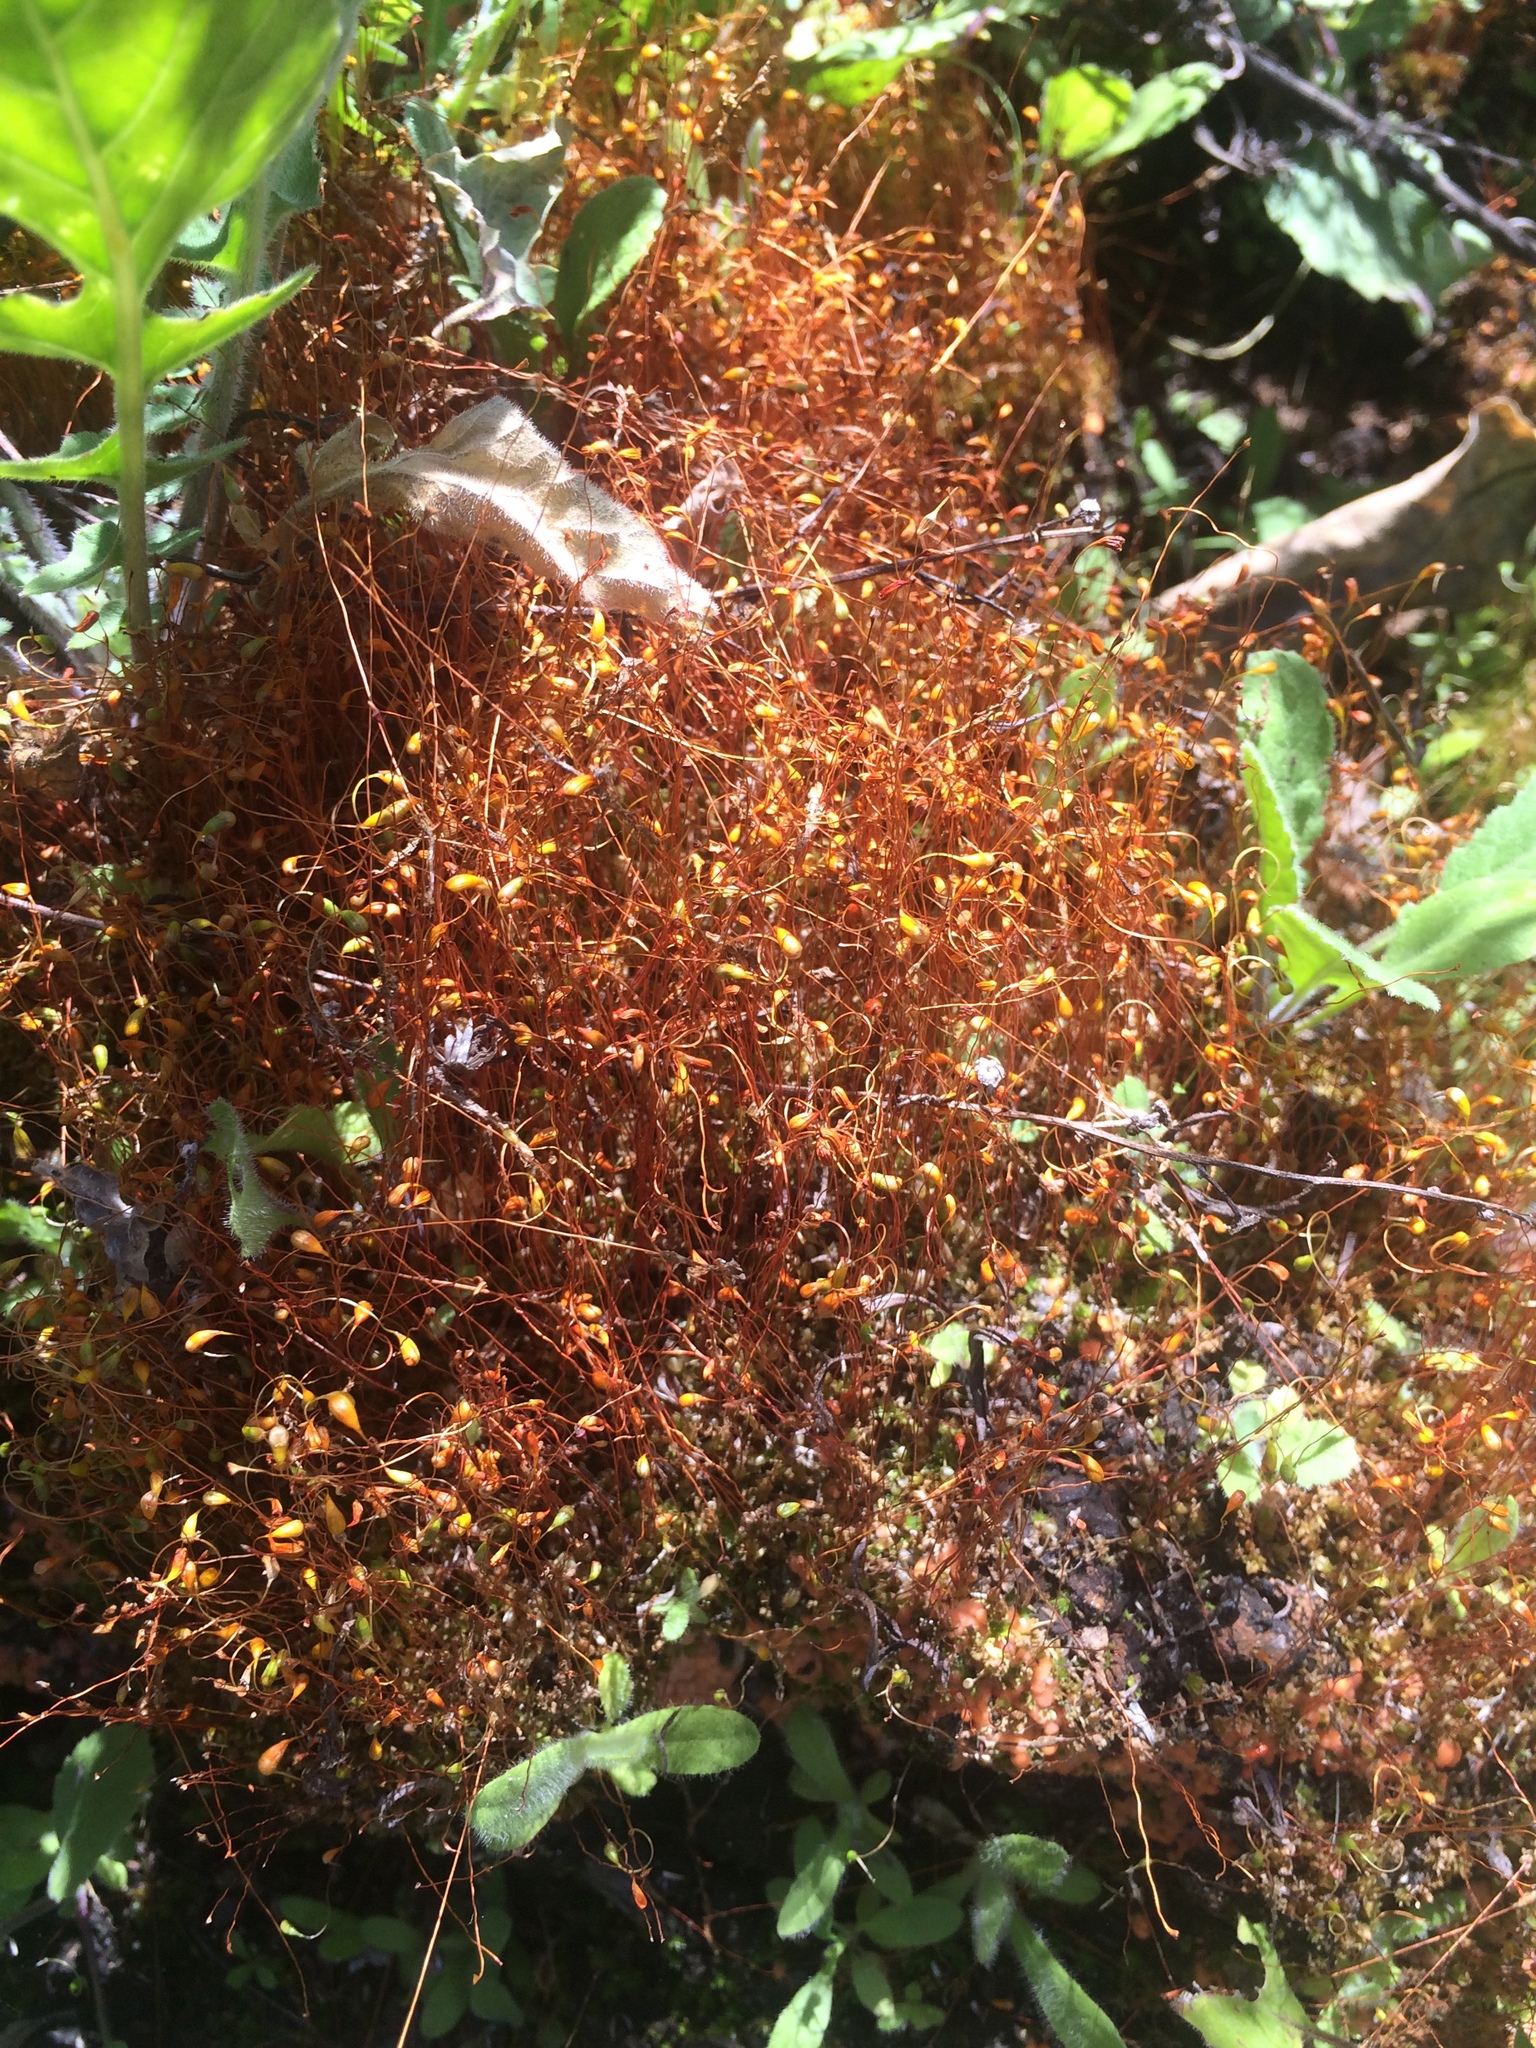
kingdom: Plantae
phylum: Bryophyta
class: Bryopsida
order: Funariales
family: Funariaceae
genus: Funaria
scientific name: Funaria hygrometrica
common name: Common cord moss
